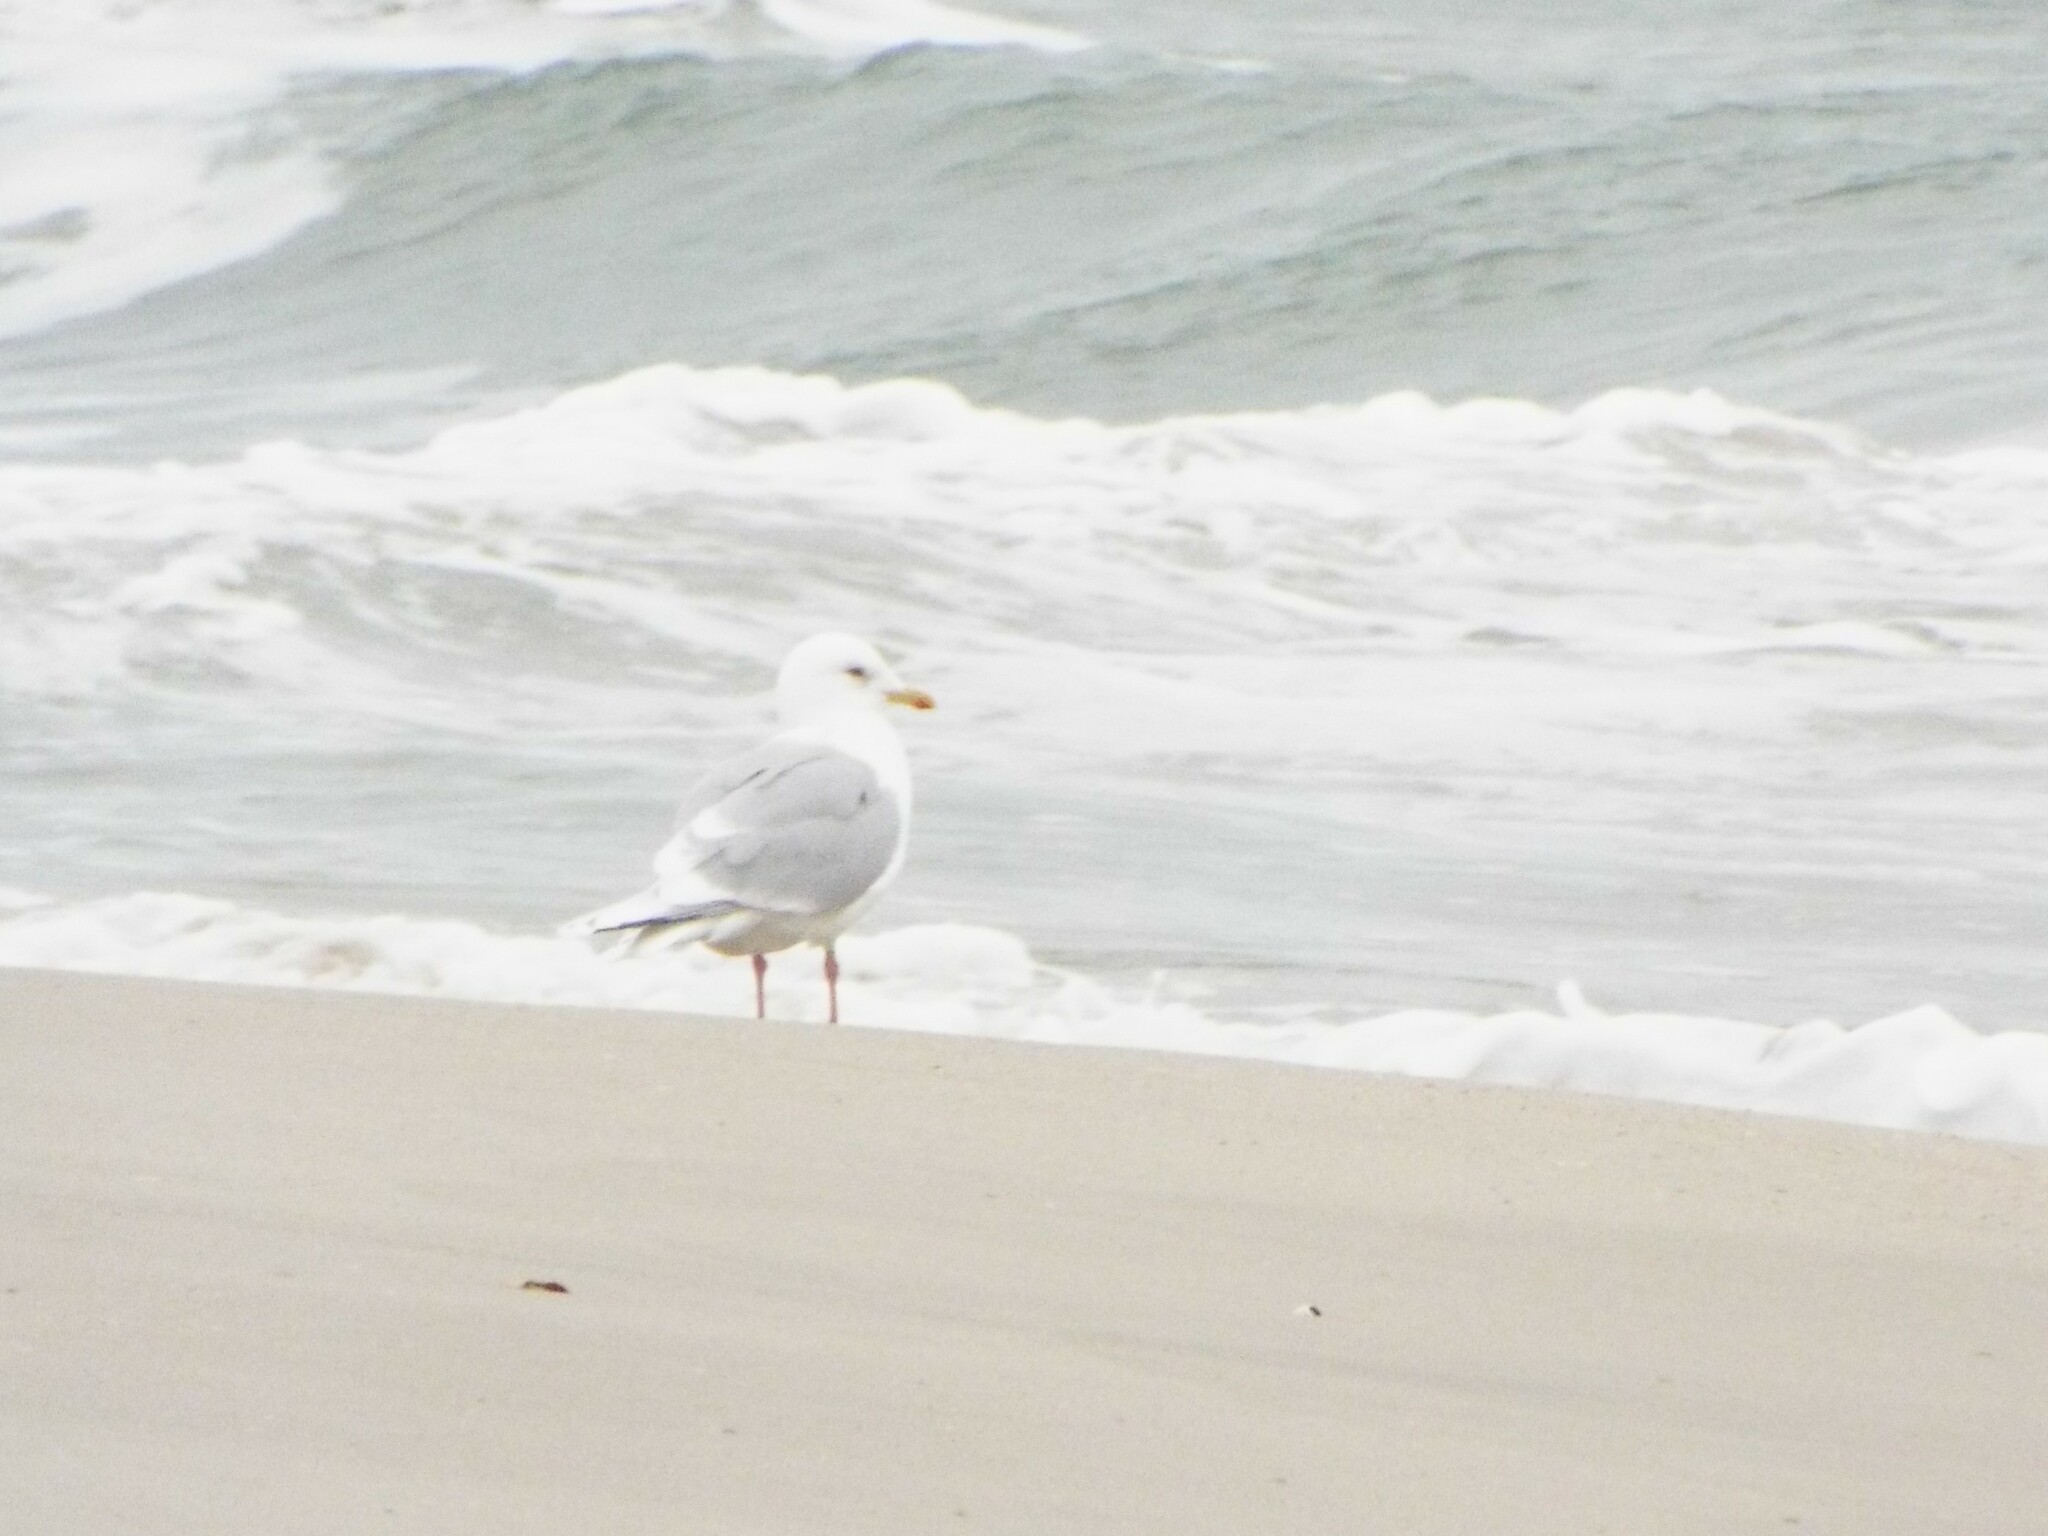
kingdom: Animalia
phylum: Chordata
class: Aves
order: Charadriiformes
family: Laridae
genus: Larus
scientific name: Larus glaucoides
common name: Iceland gull
